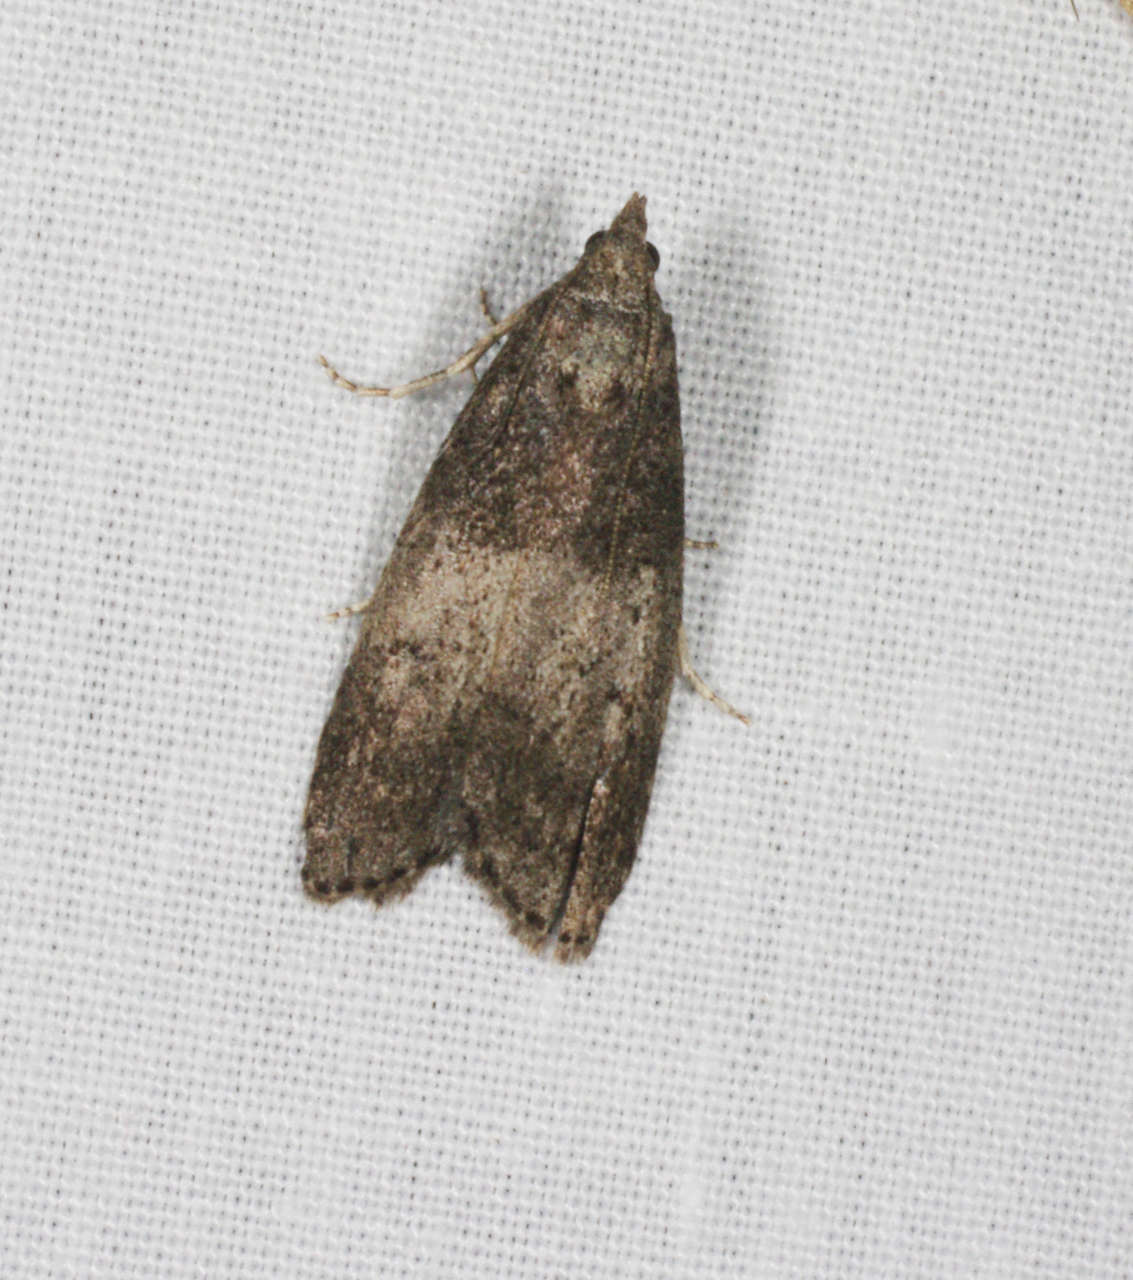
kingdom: Animalia
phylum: Arthropoda
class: Insecta
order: Lepidoptera
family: Pyralidae
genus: Aphomia
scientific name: Aphomia baryptera
